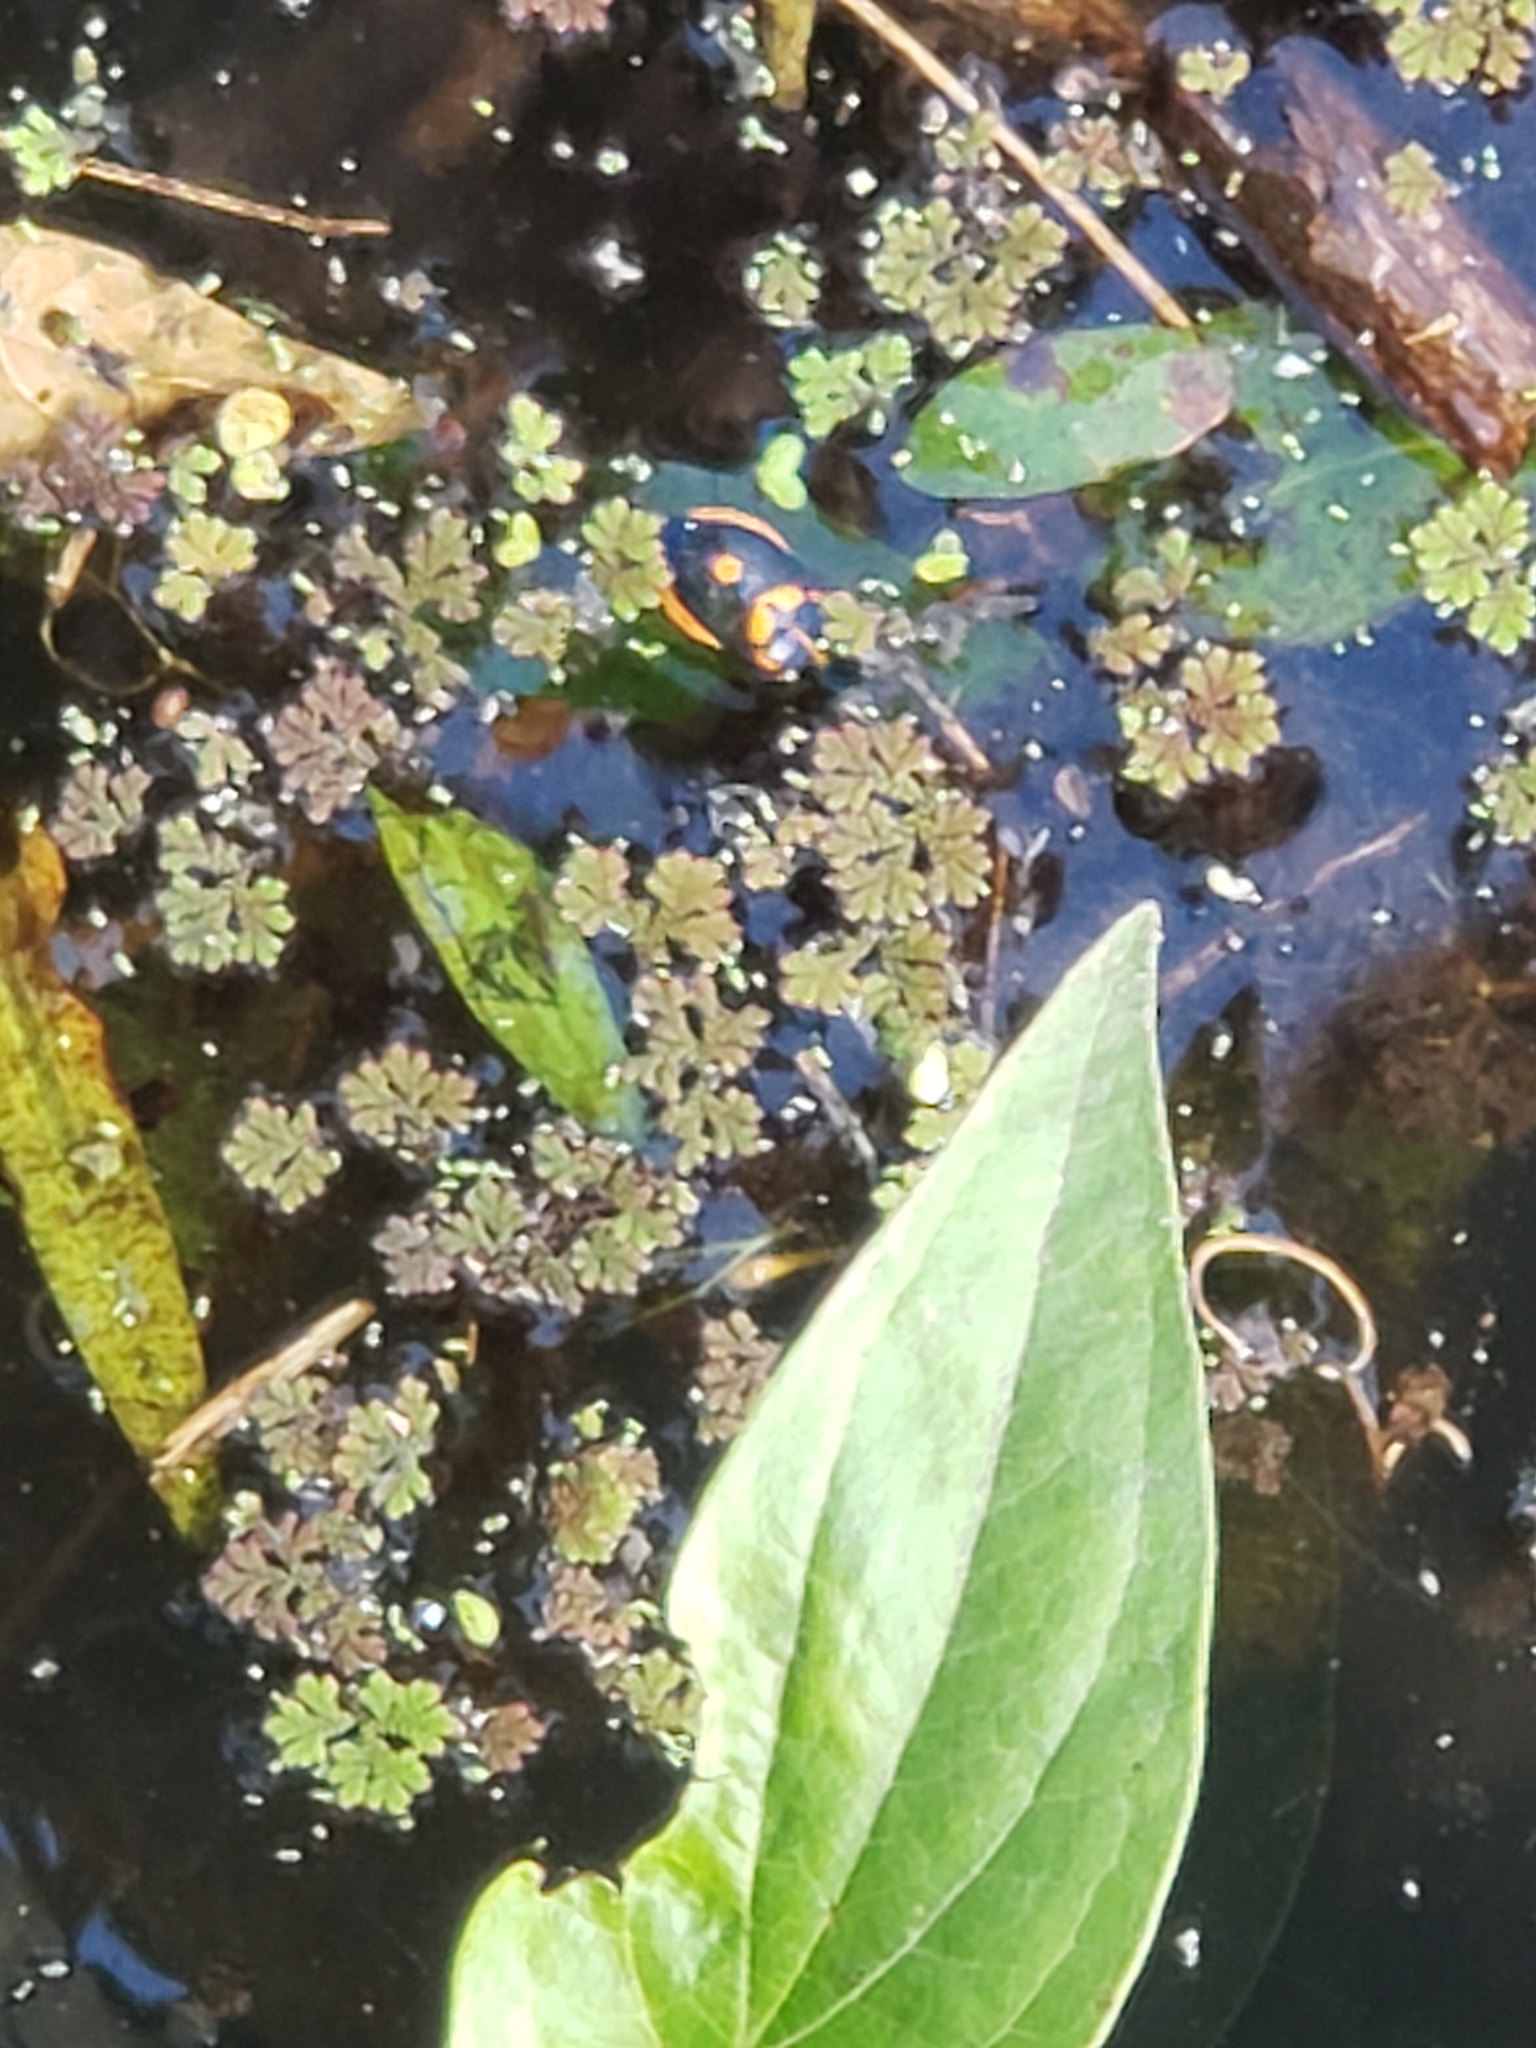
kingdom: Animalia
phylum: Arthropoda
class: Insecta
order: Hemiptera
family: Pentatomidae
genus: Euthyrhynchus
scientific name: Euthyrhynchus floridanus
